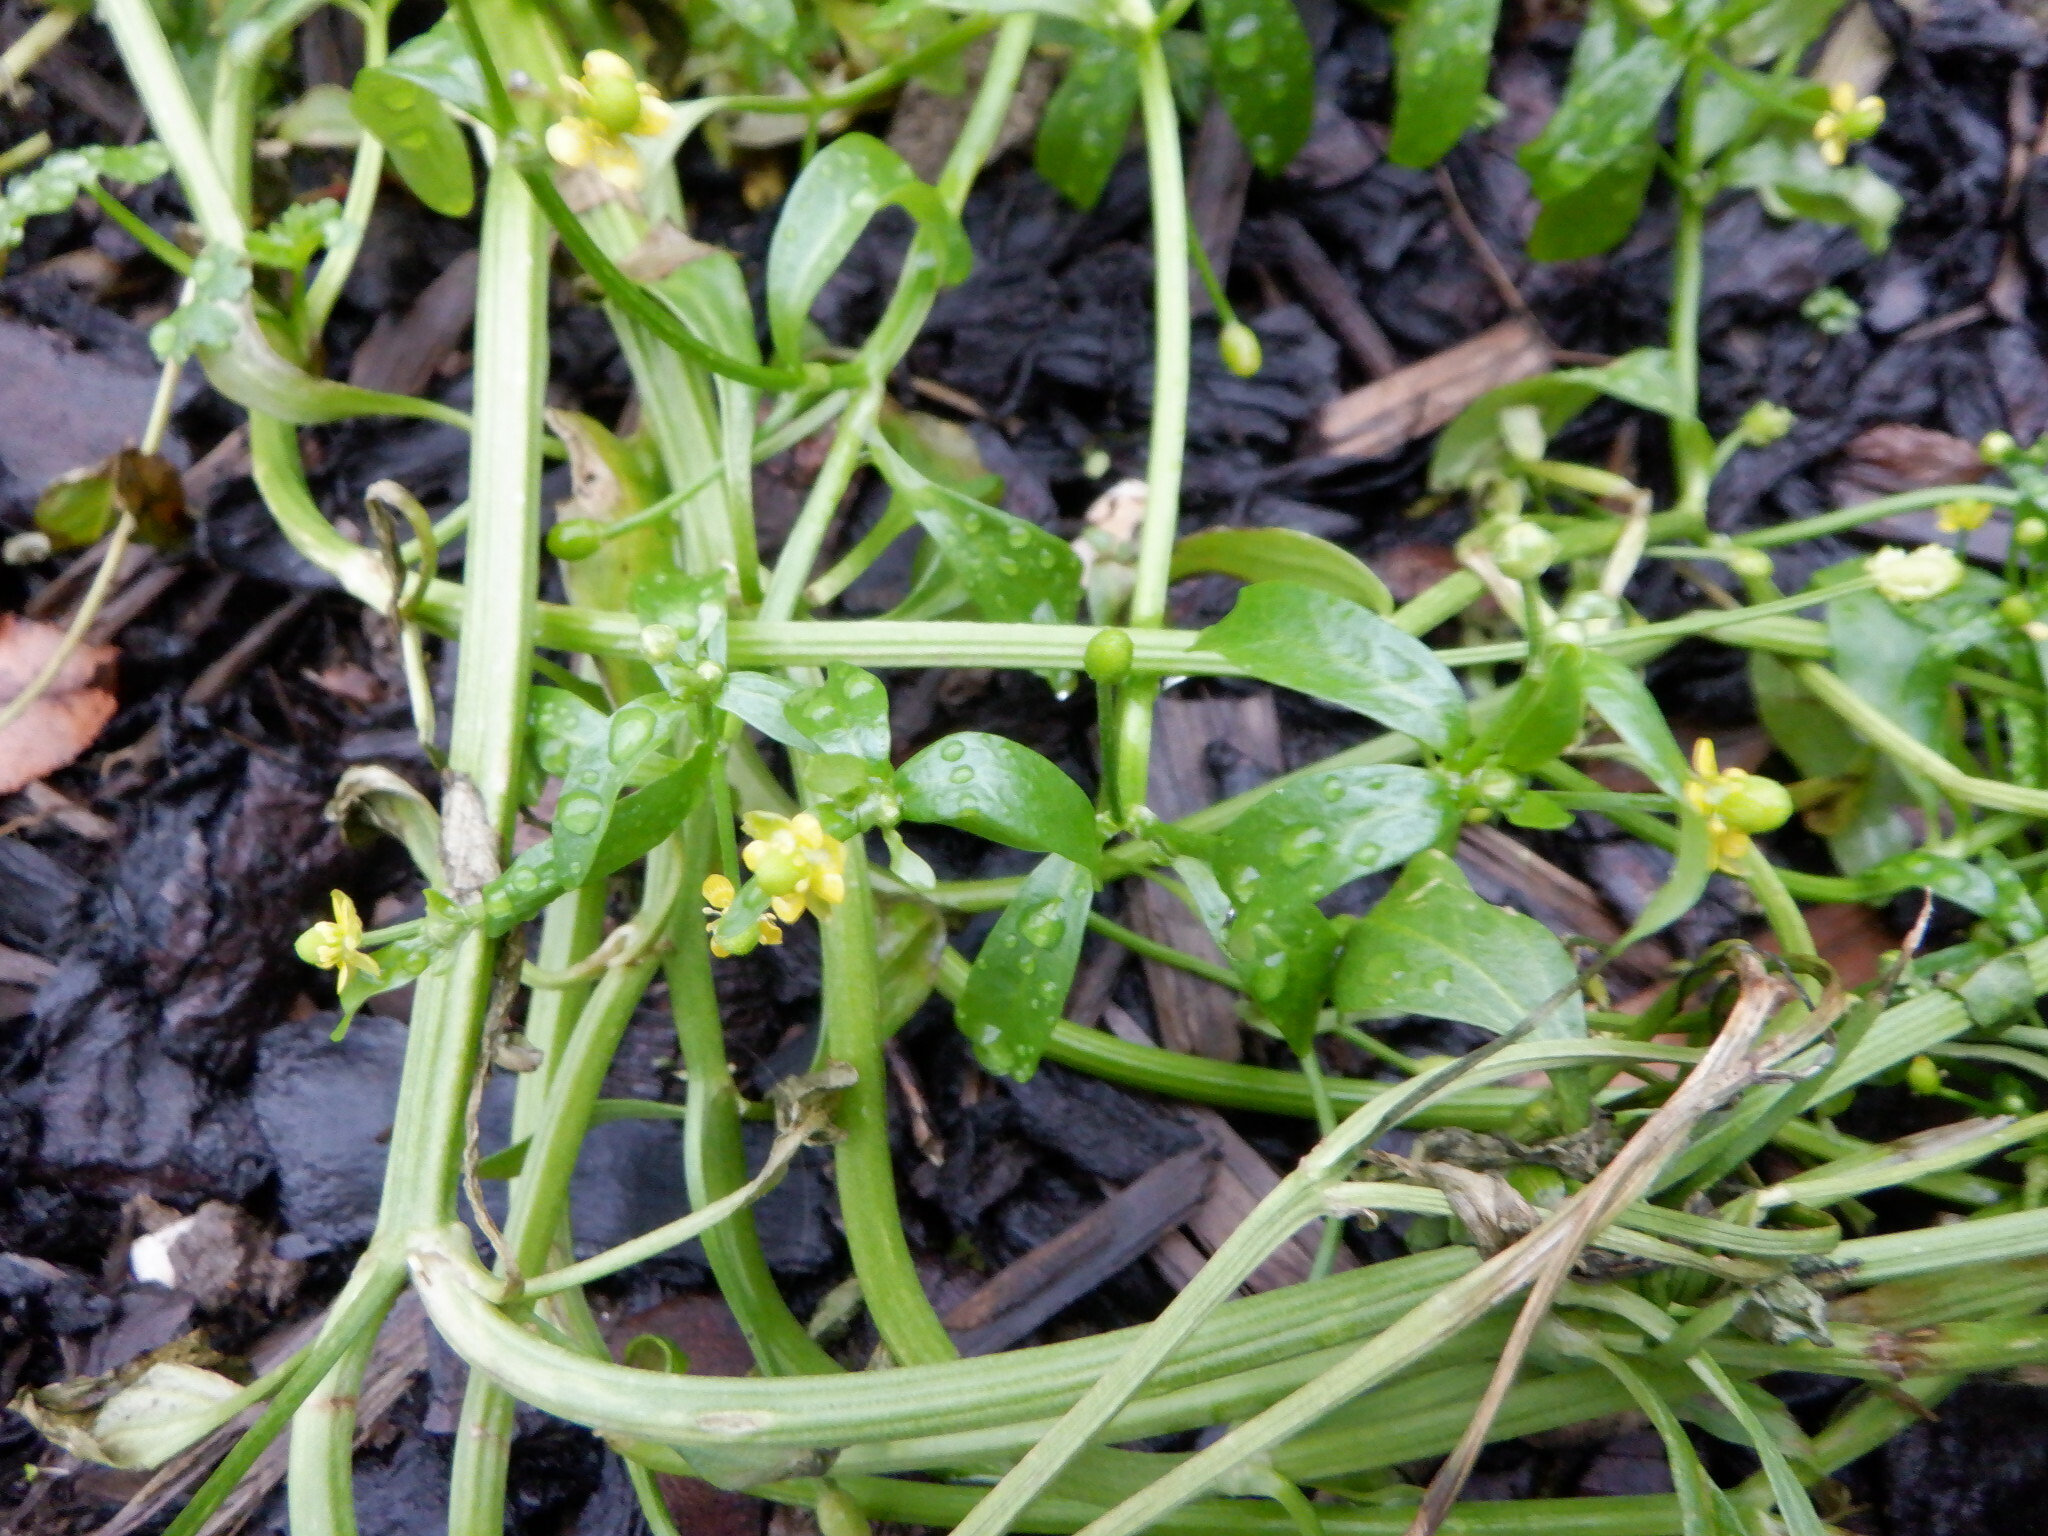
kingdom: Plantae
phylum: Tracheophyta
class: Magnoliopsida
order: Ranunculales
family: Ranunculaceae
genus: Ranunculus
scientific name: Ranunculus sceleratus
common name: Celery-leaved buttercup
